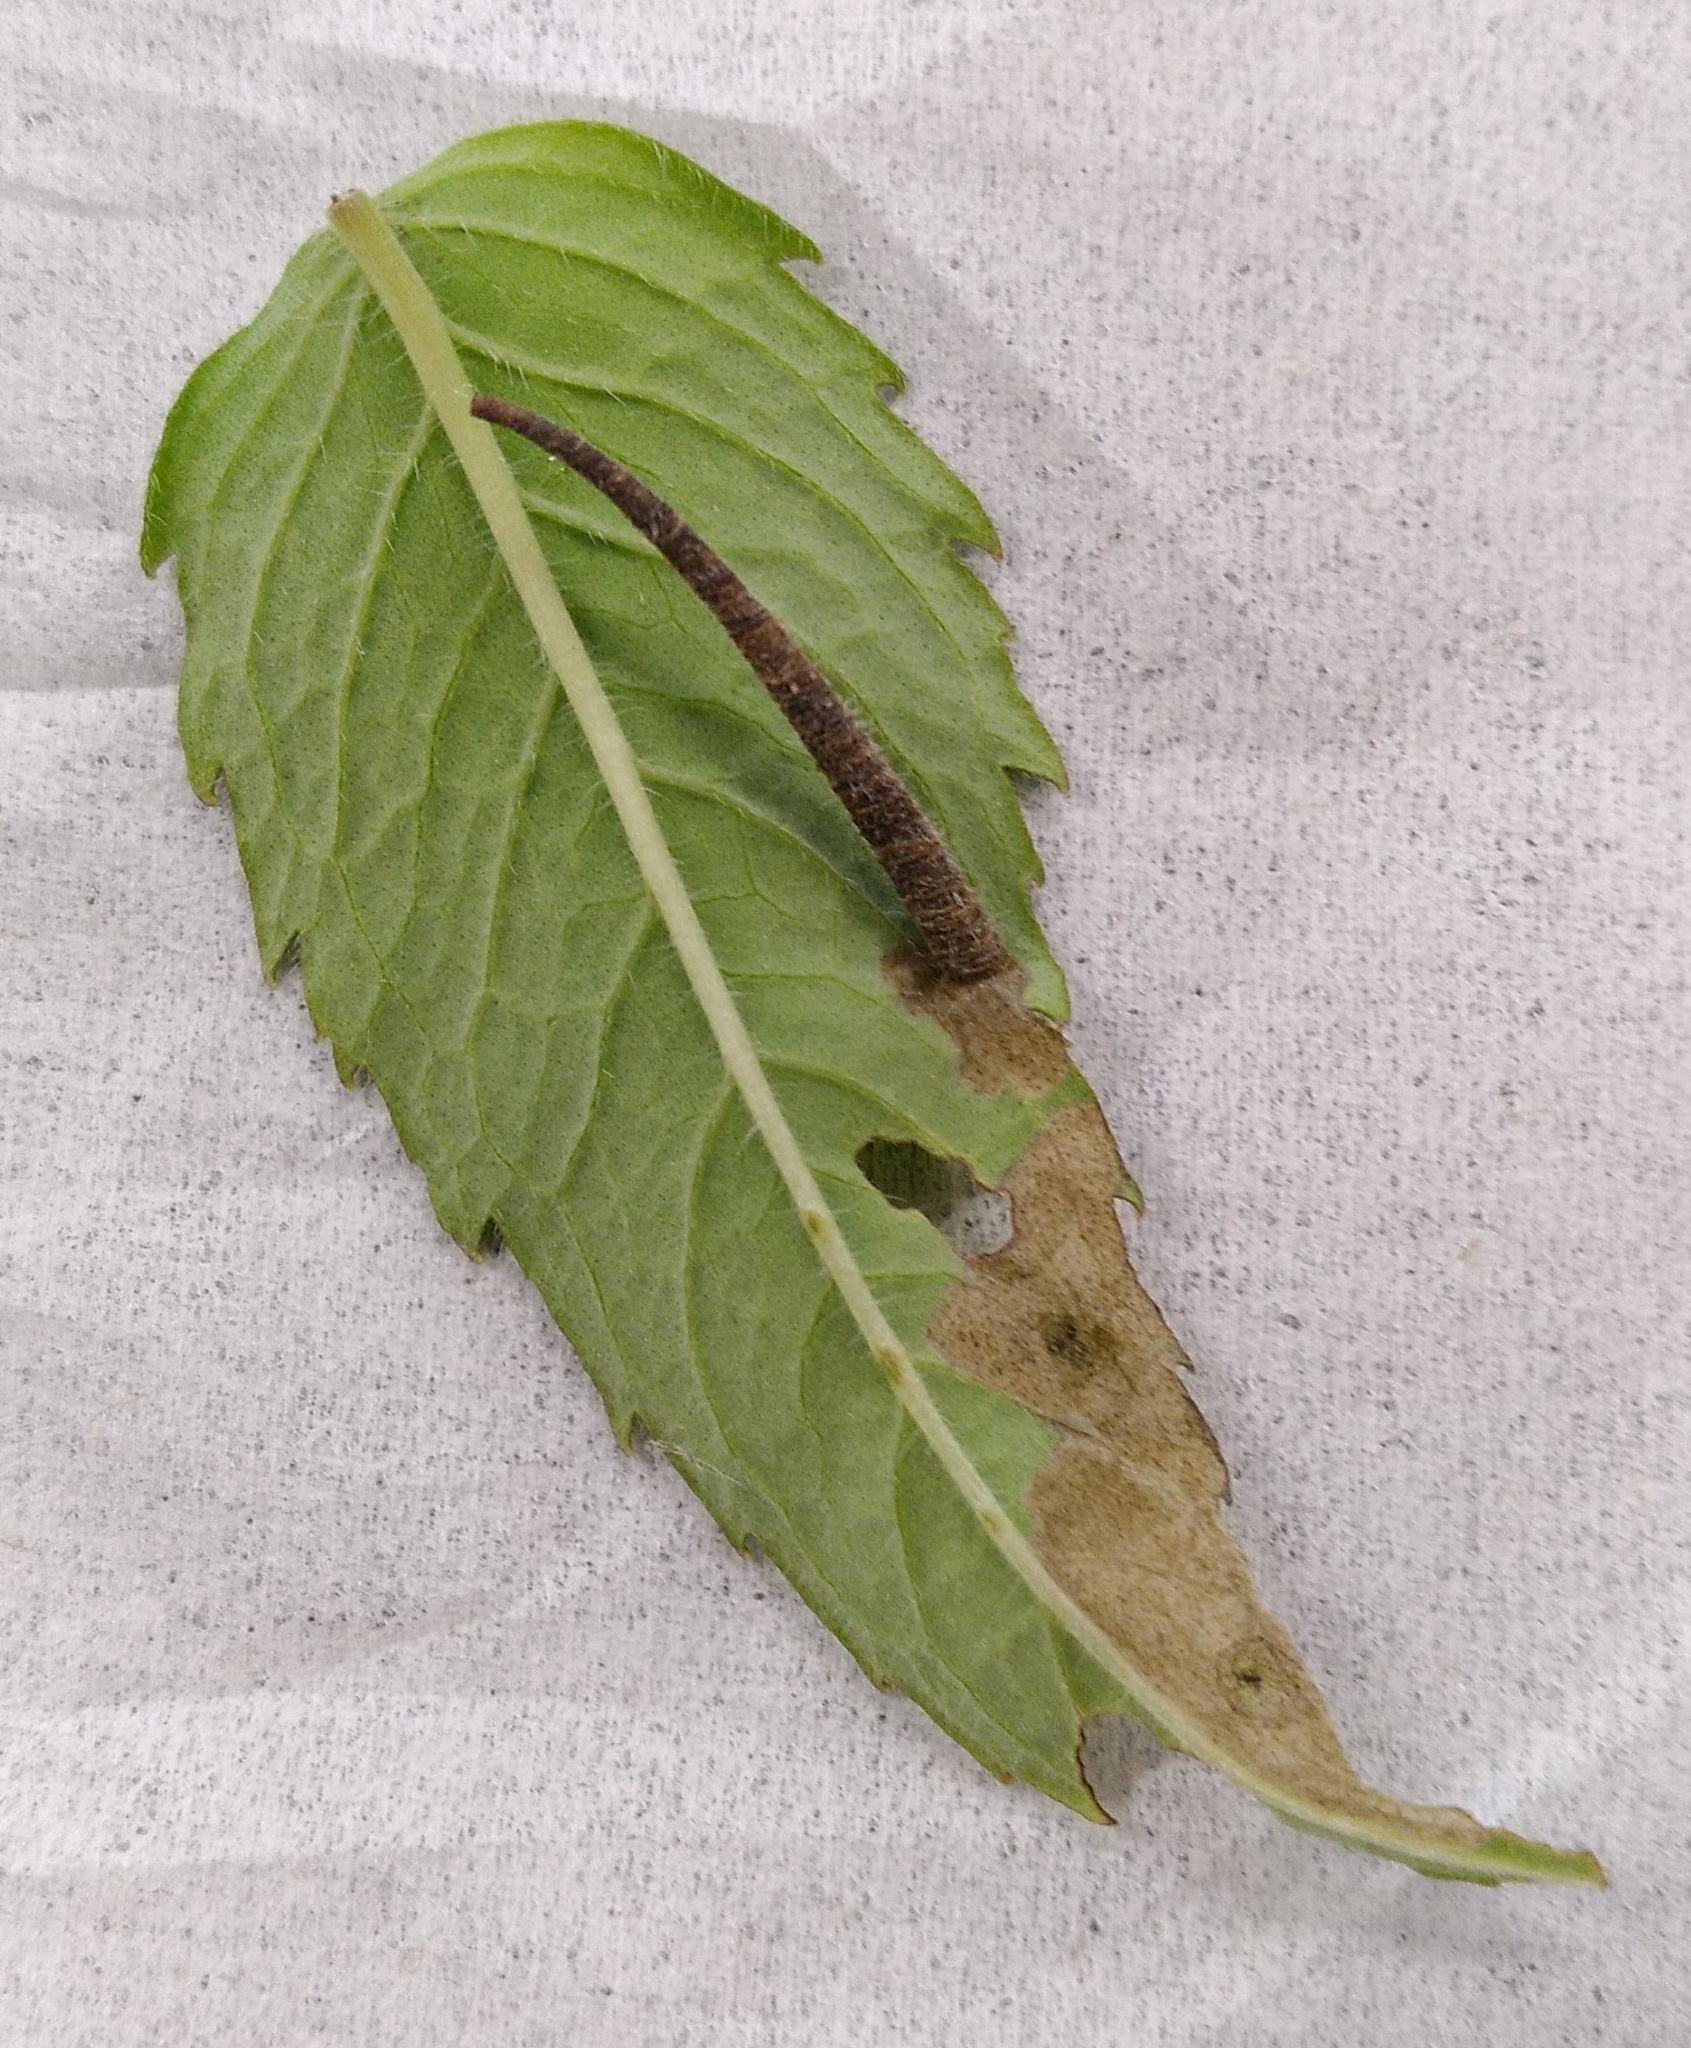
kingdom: Animalia
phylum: Arthropoda
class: Insecta
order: Lepidoptera
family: Coleophoridae
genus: Coleophora
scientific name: Coleophora monardella
